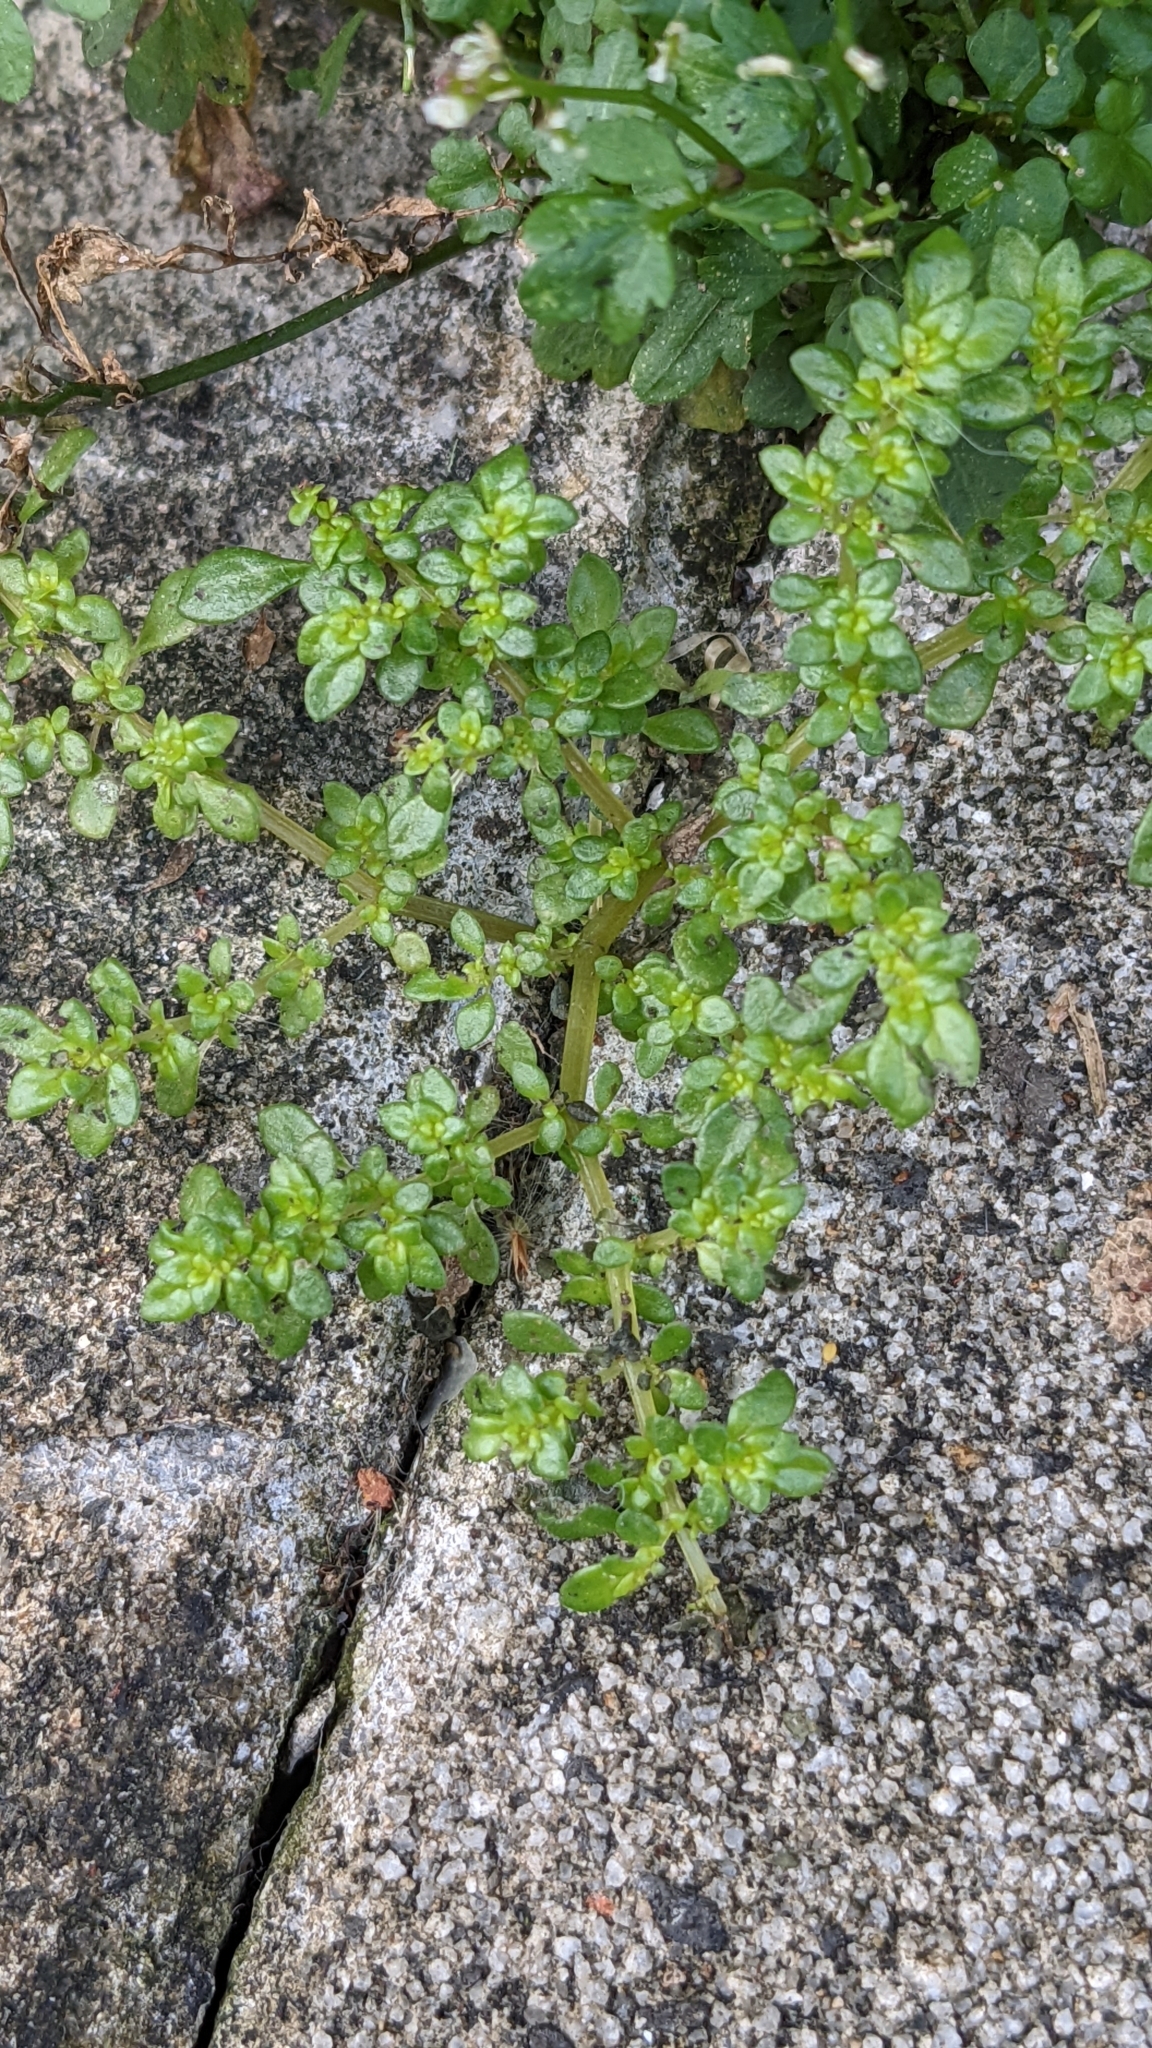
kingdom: Plantae
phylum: Tracheophyta
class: Magnoliopsida
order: Rosales
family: Urticaceae
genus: Pilea
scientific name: Pilea microphylla
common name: Artillery-plant
